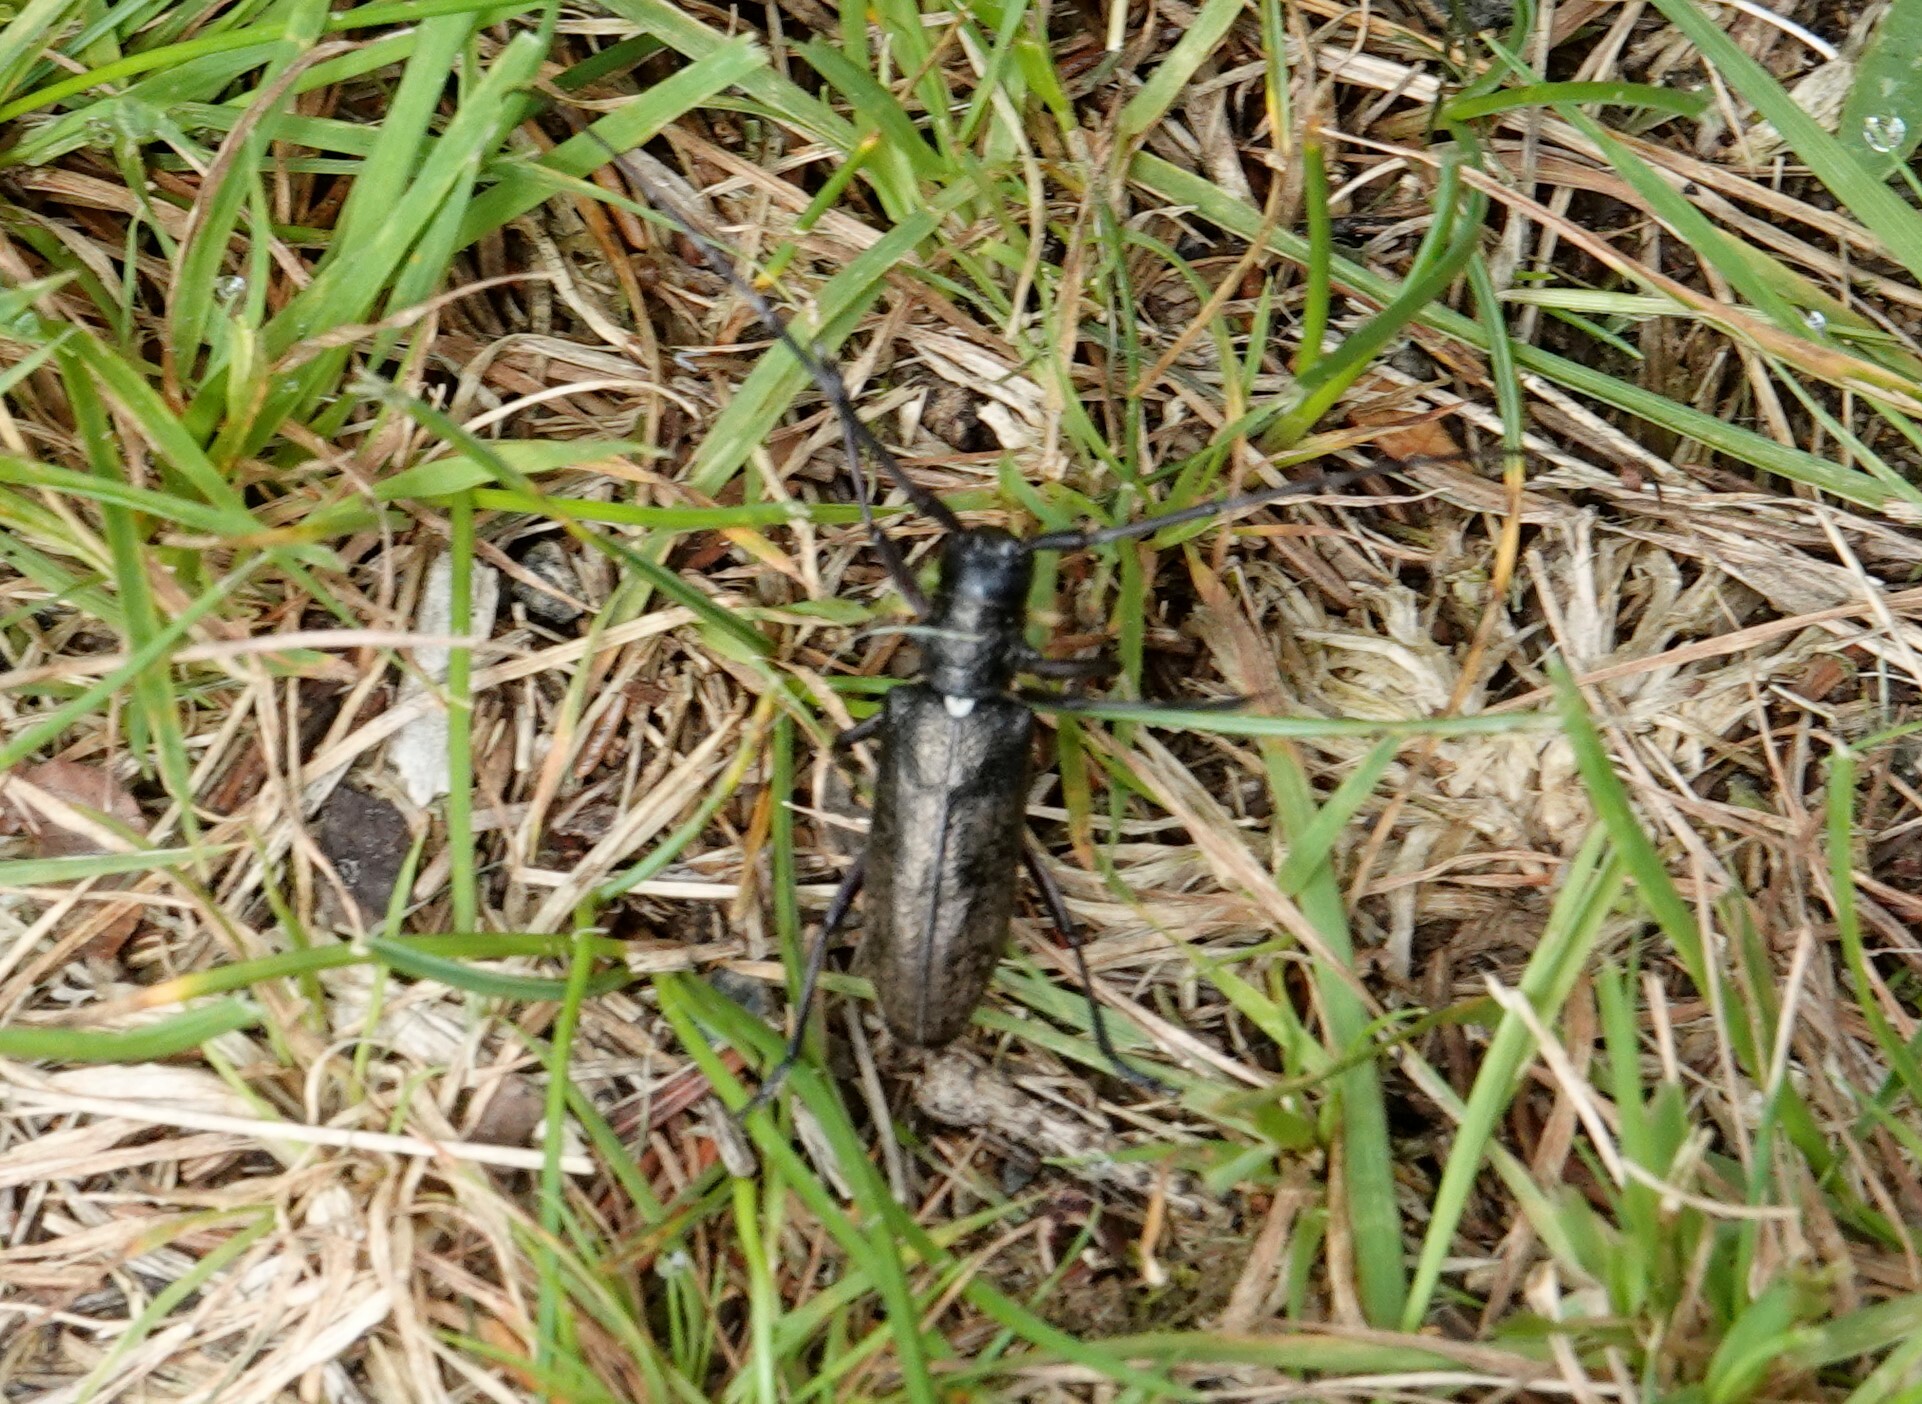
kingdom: Animalia
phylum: Arthropoda
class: Insecta
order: Coleoptera
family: Cerambycidae
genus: Monochamus
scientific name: Monochamus scutellatus
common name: White-spotted sawyer beetle
